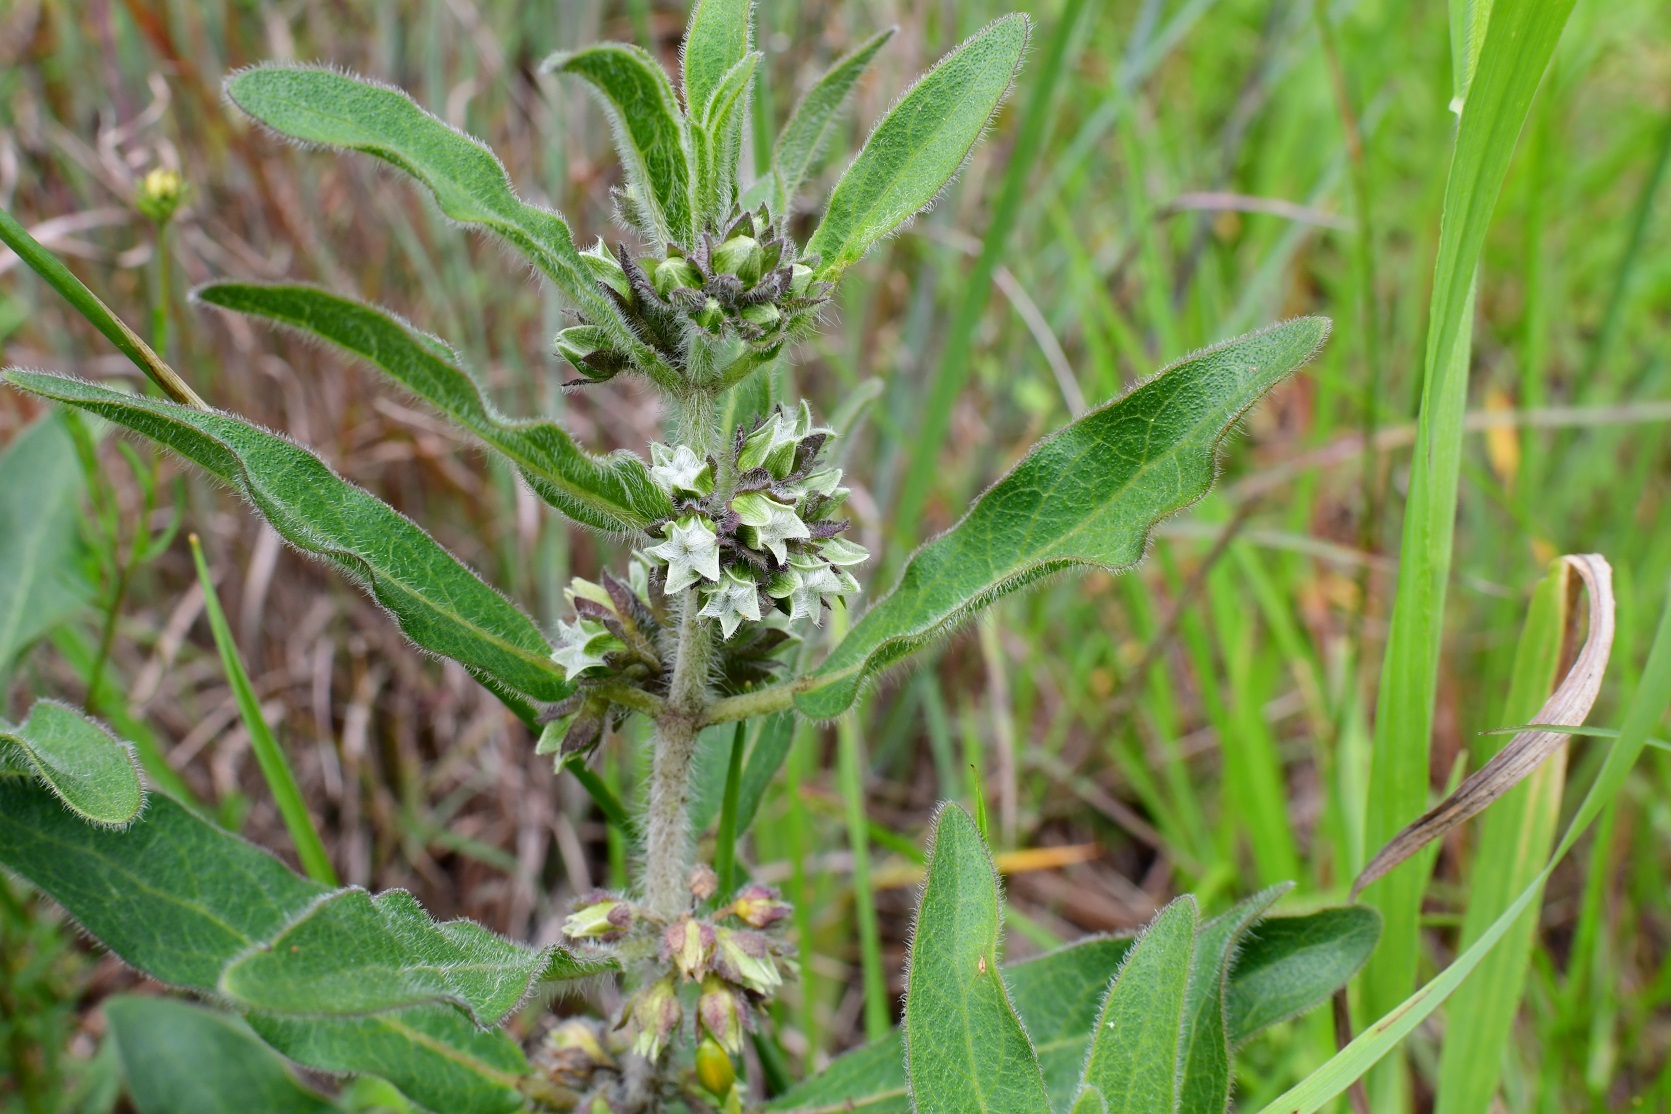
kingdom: Plantae
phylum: Tracheophyta
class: Magnoliopsida
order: Gentianales
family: Apocynaceae
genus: Pherotrichis
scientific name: Pherotrichis villosa
